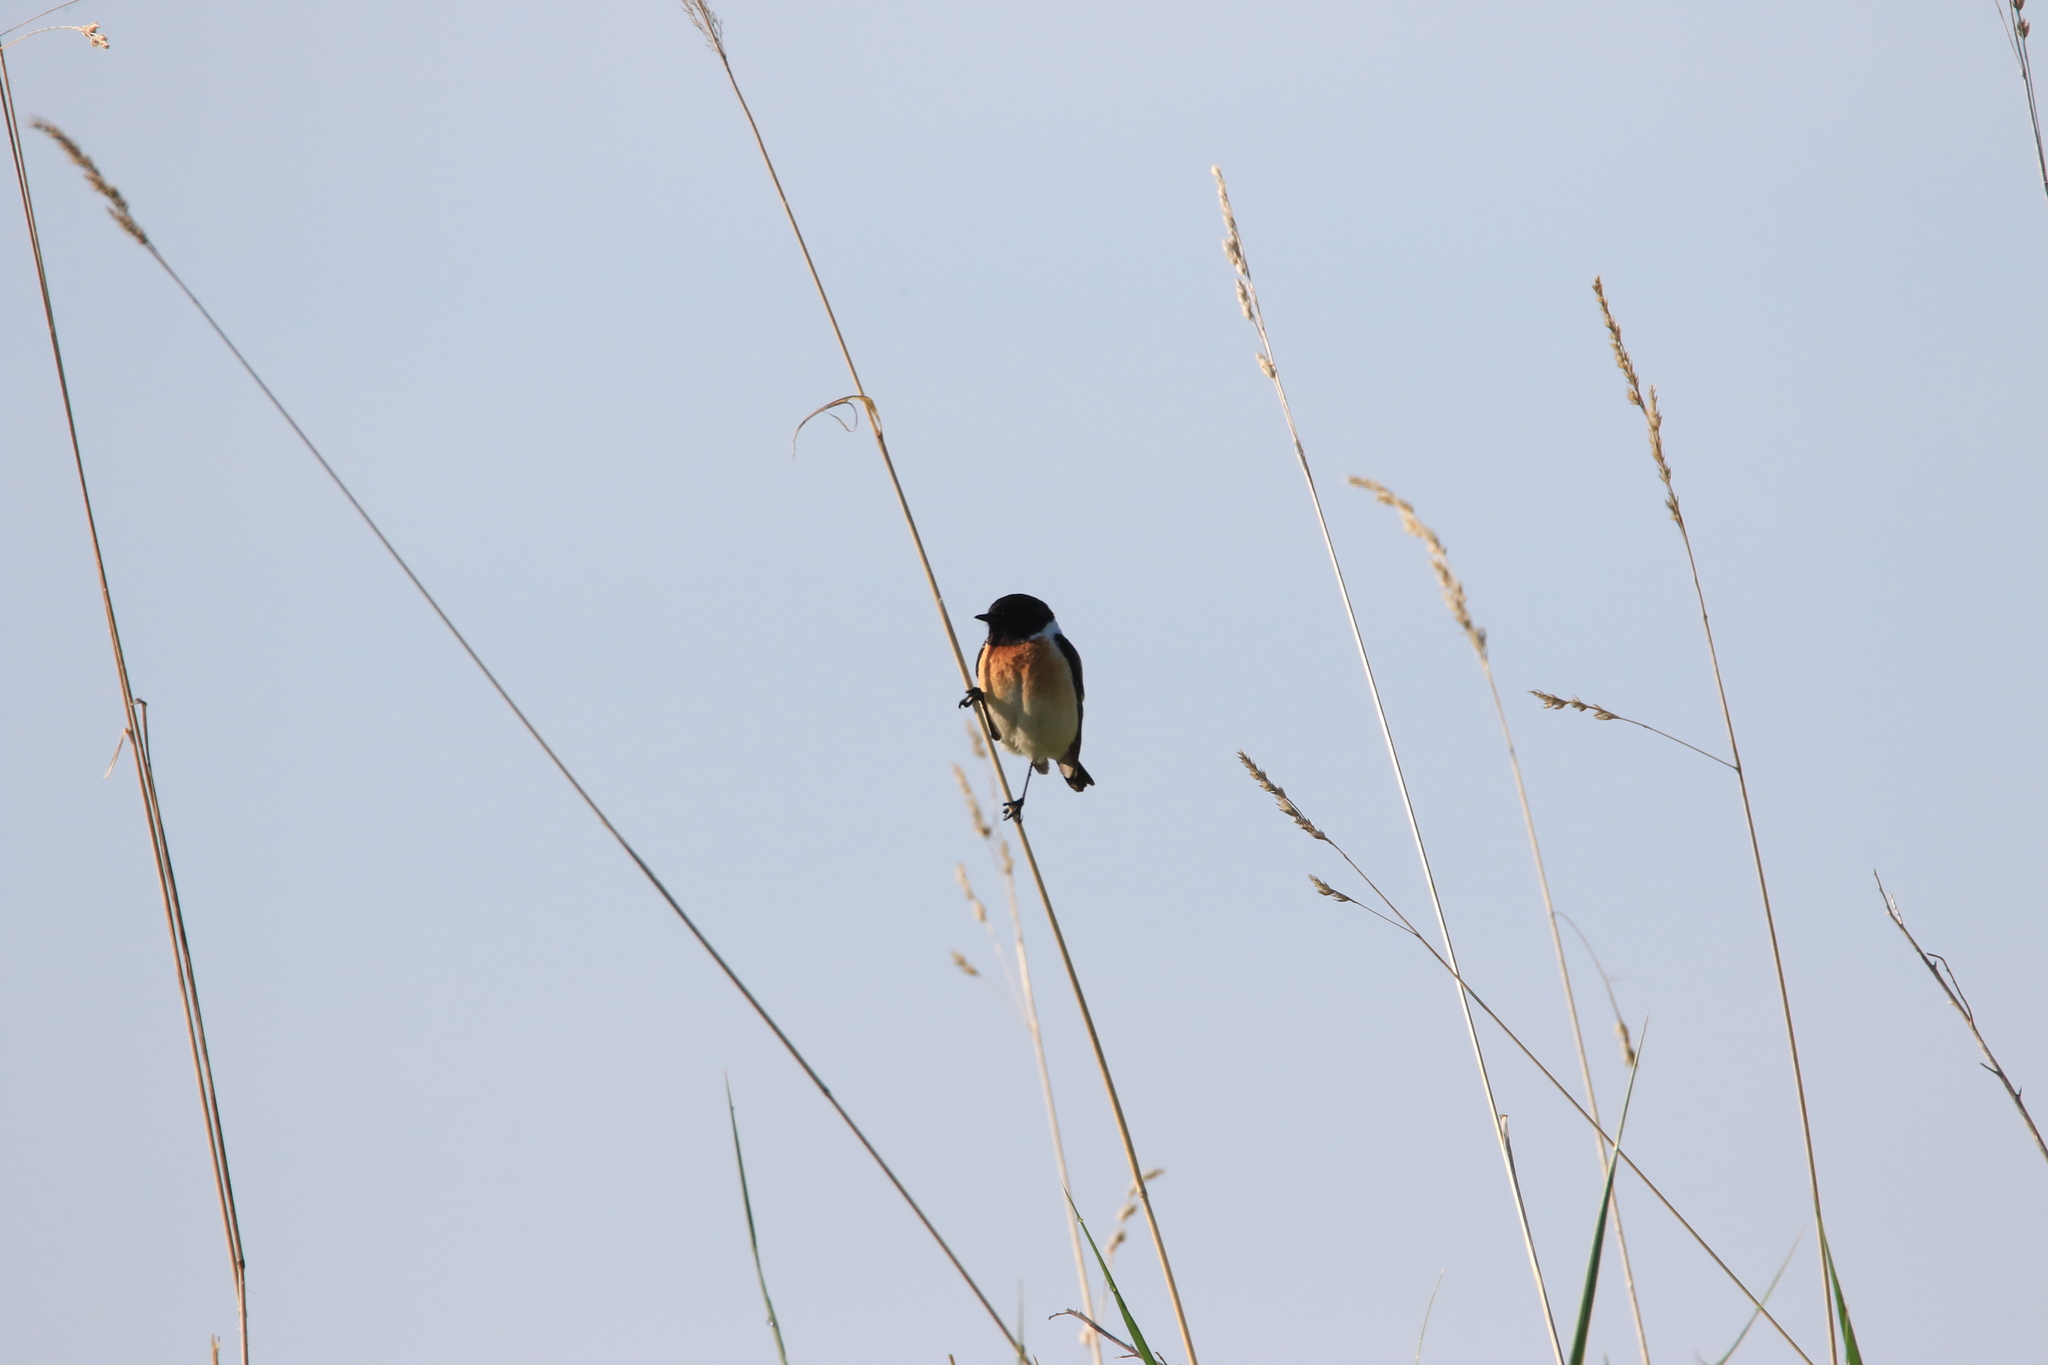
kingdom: Animalia
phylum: Chordata
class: Aves
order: Passeriformes
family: Muscicapidae
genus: Saxicola
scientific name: Saxicola maurus
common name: Siberian stonechat
